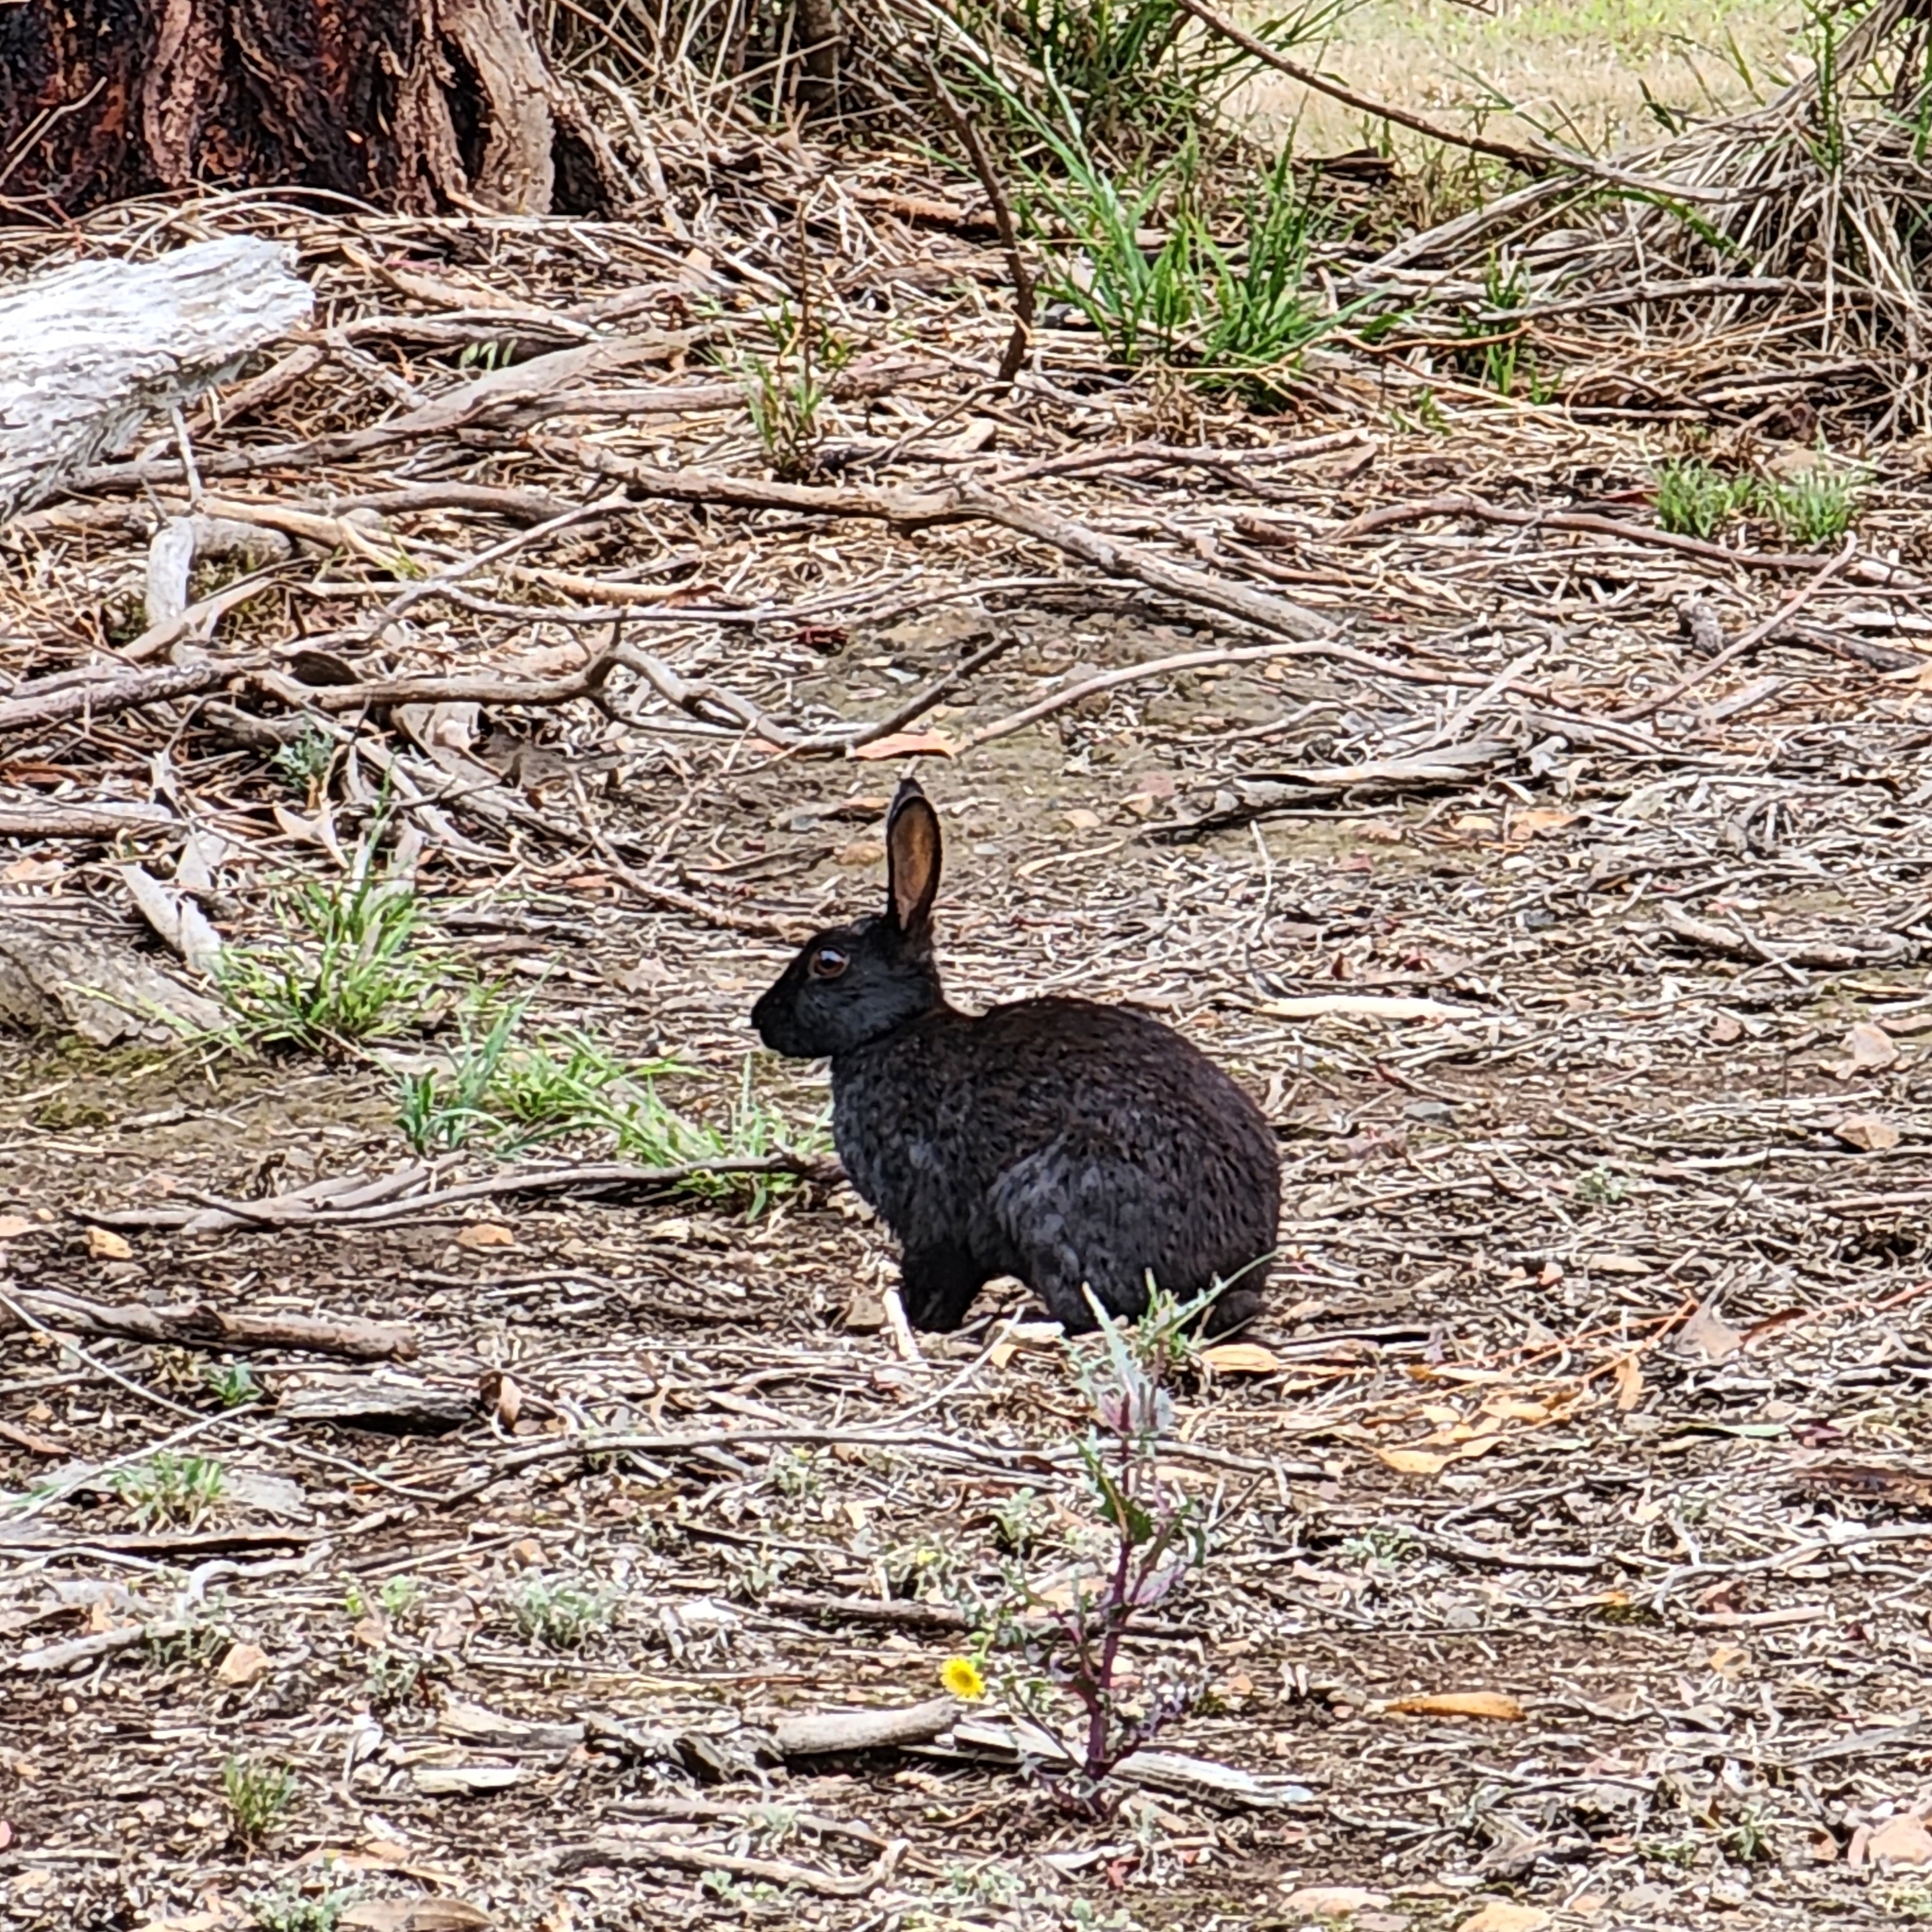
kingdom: Animalia
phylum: Chordata
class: Mammalia
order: Lagomorpha
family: Leporidae
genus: Oryctolagus
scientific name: Oryctolagus cuniculus
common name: European rabbit
